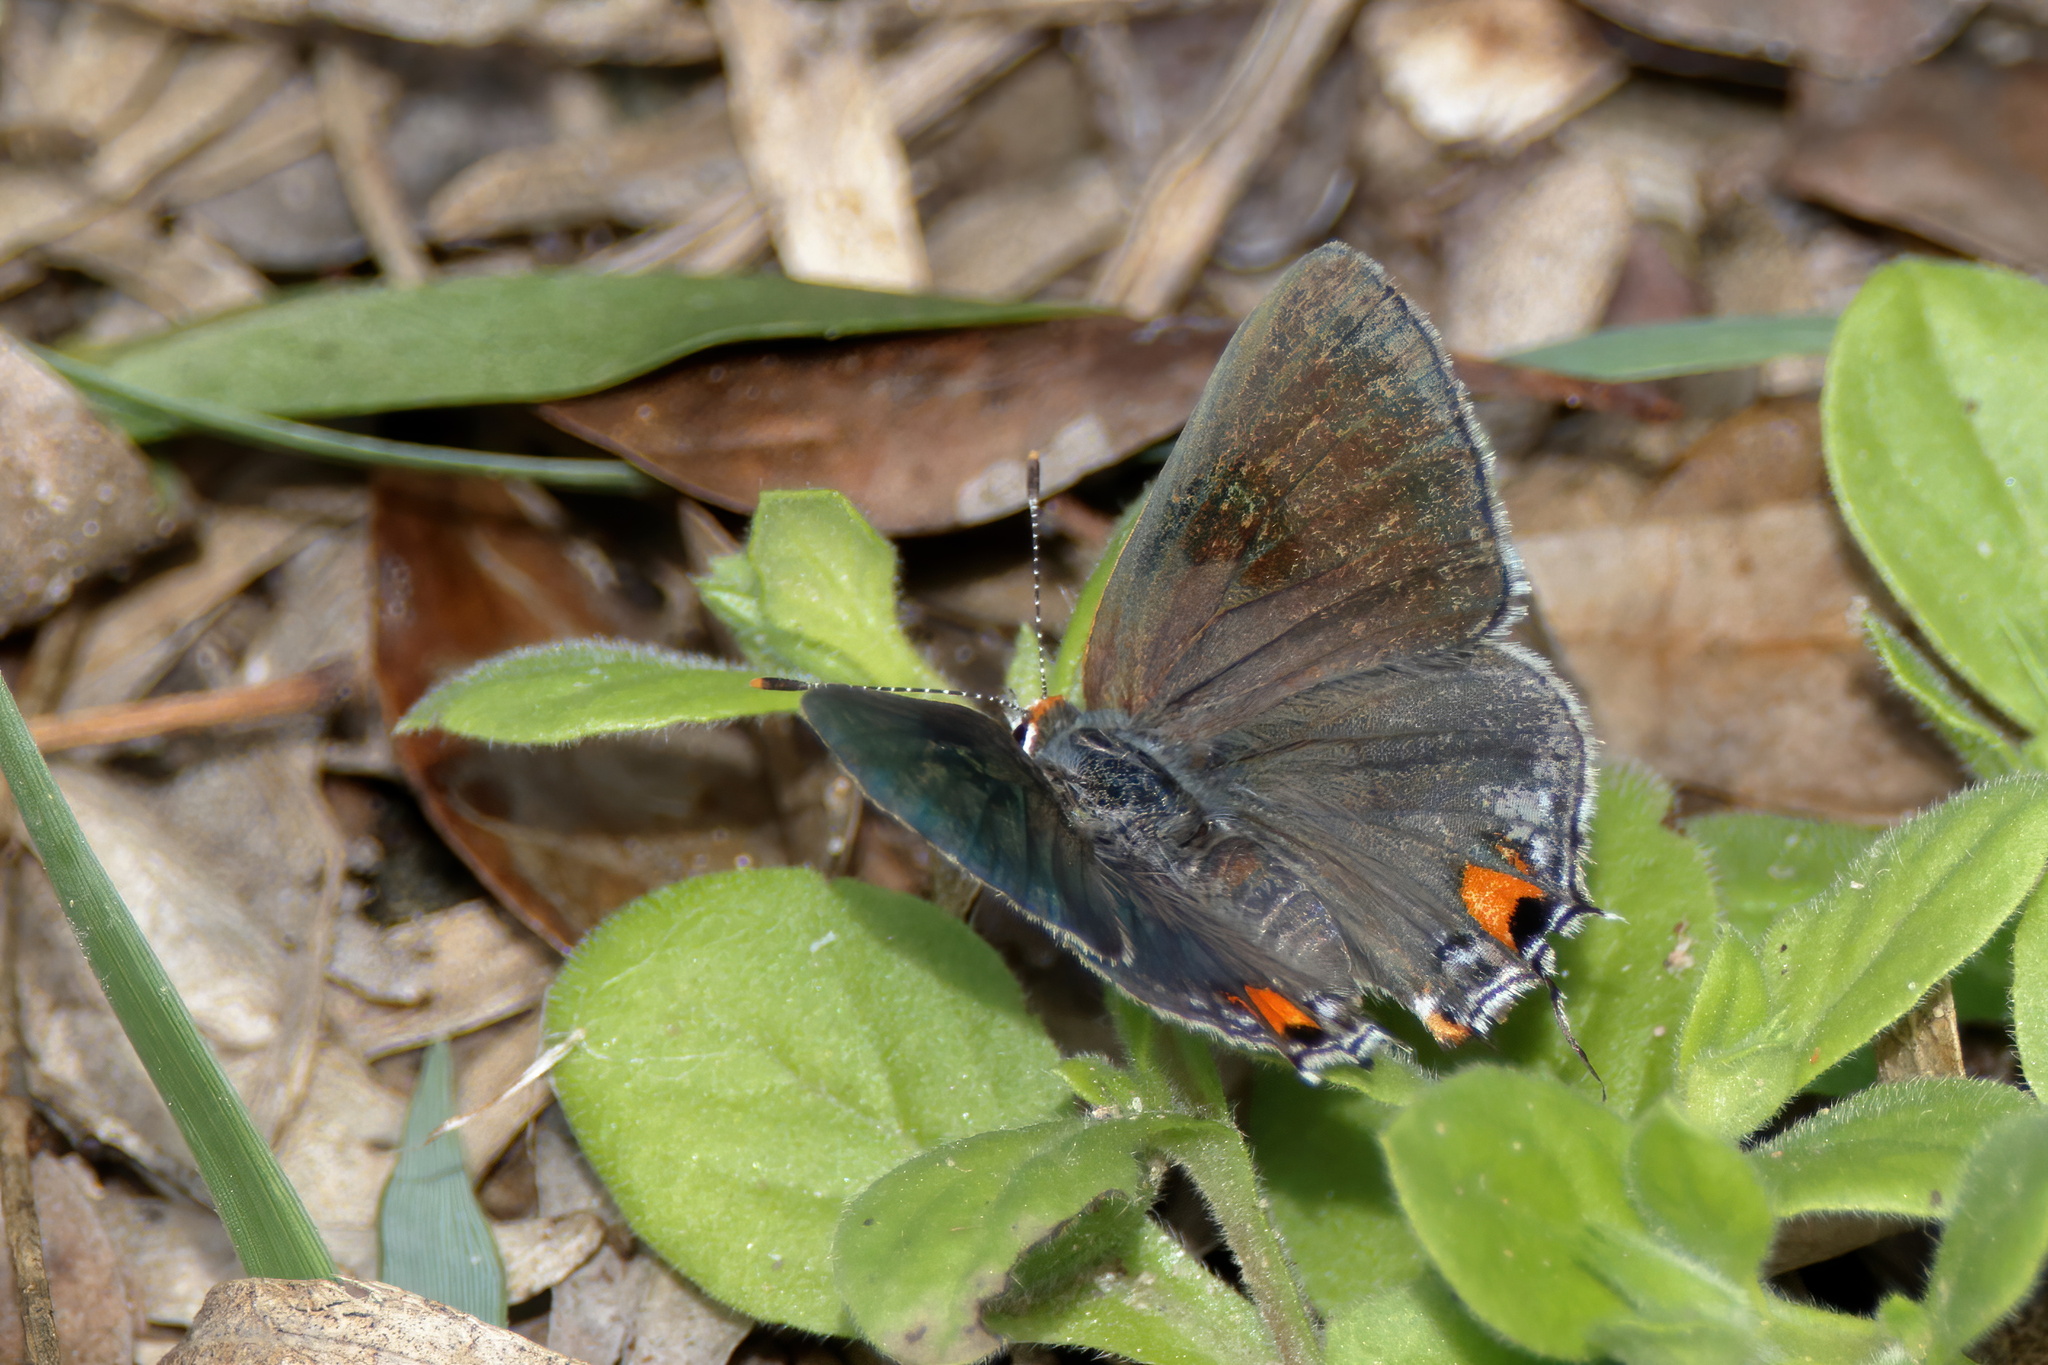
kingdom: Animalia
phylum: Arthropoda
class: Insecta
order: Lepidoptera
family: Lycaenidae
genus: Strymon
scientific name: Strymon melinus
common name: Gray hairstreak
